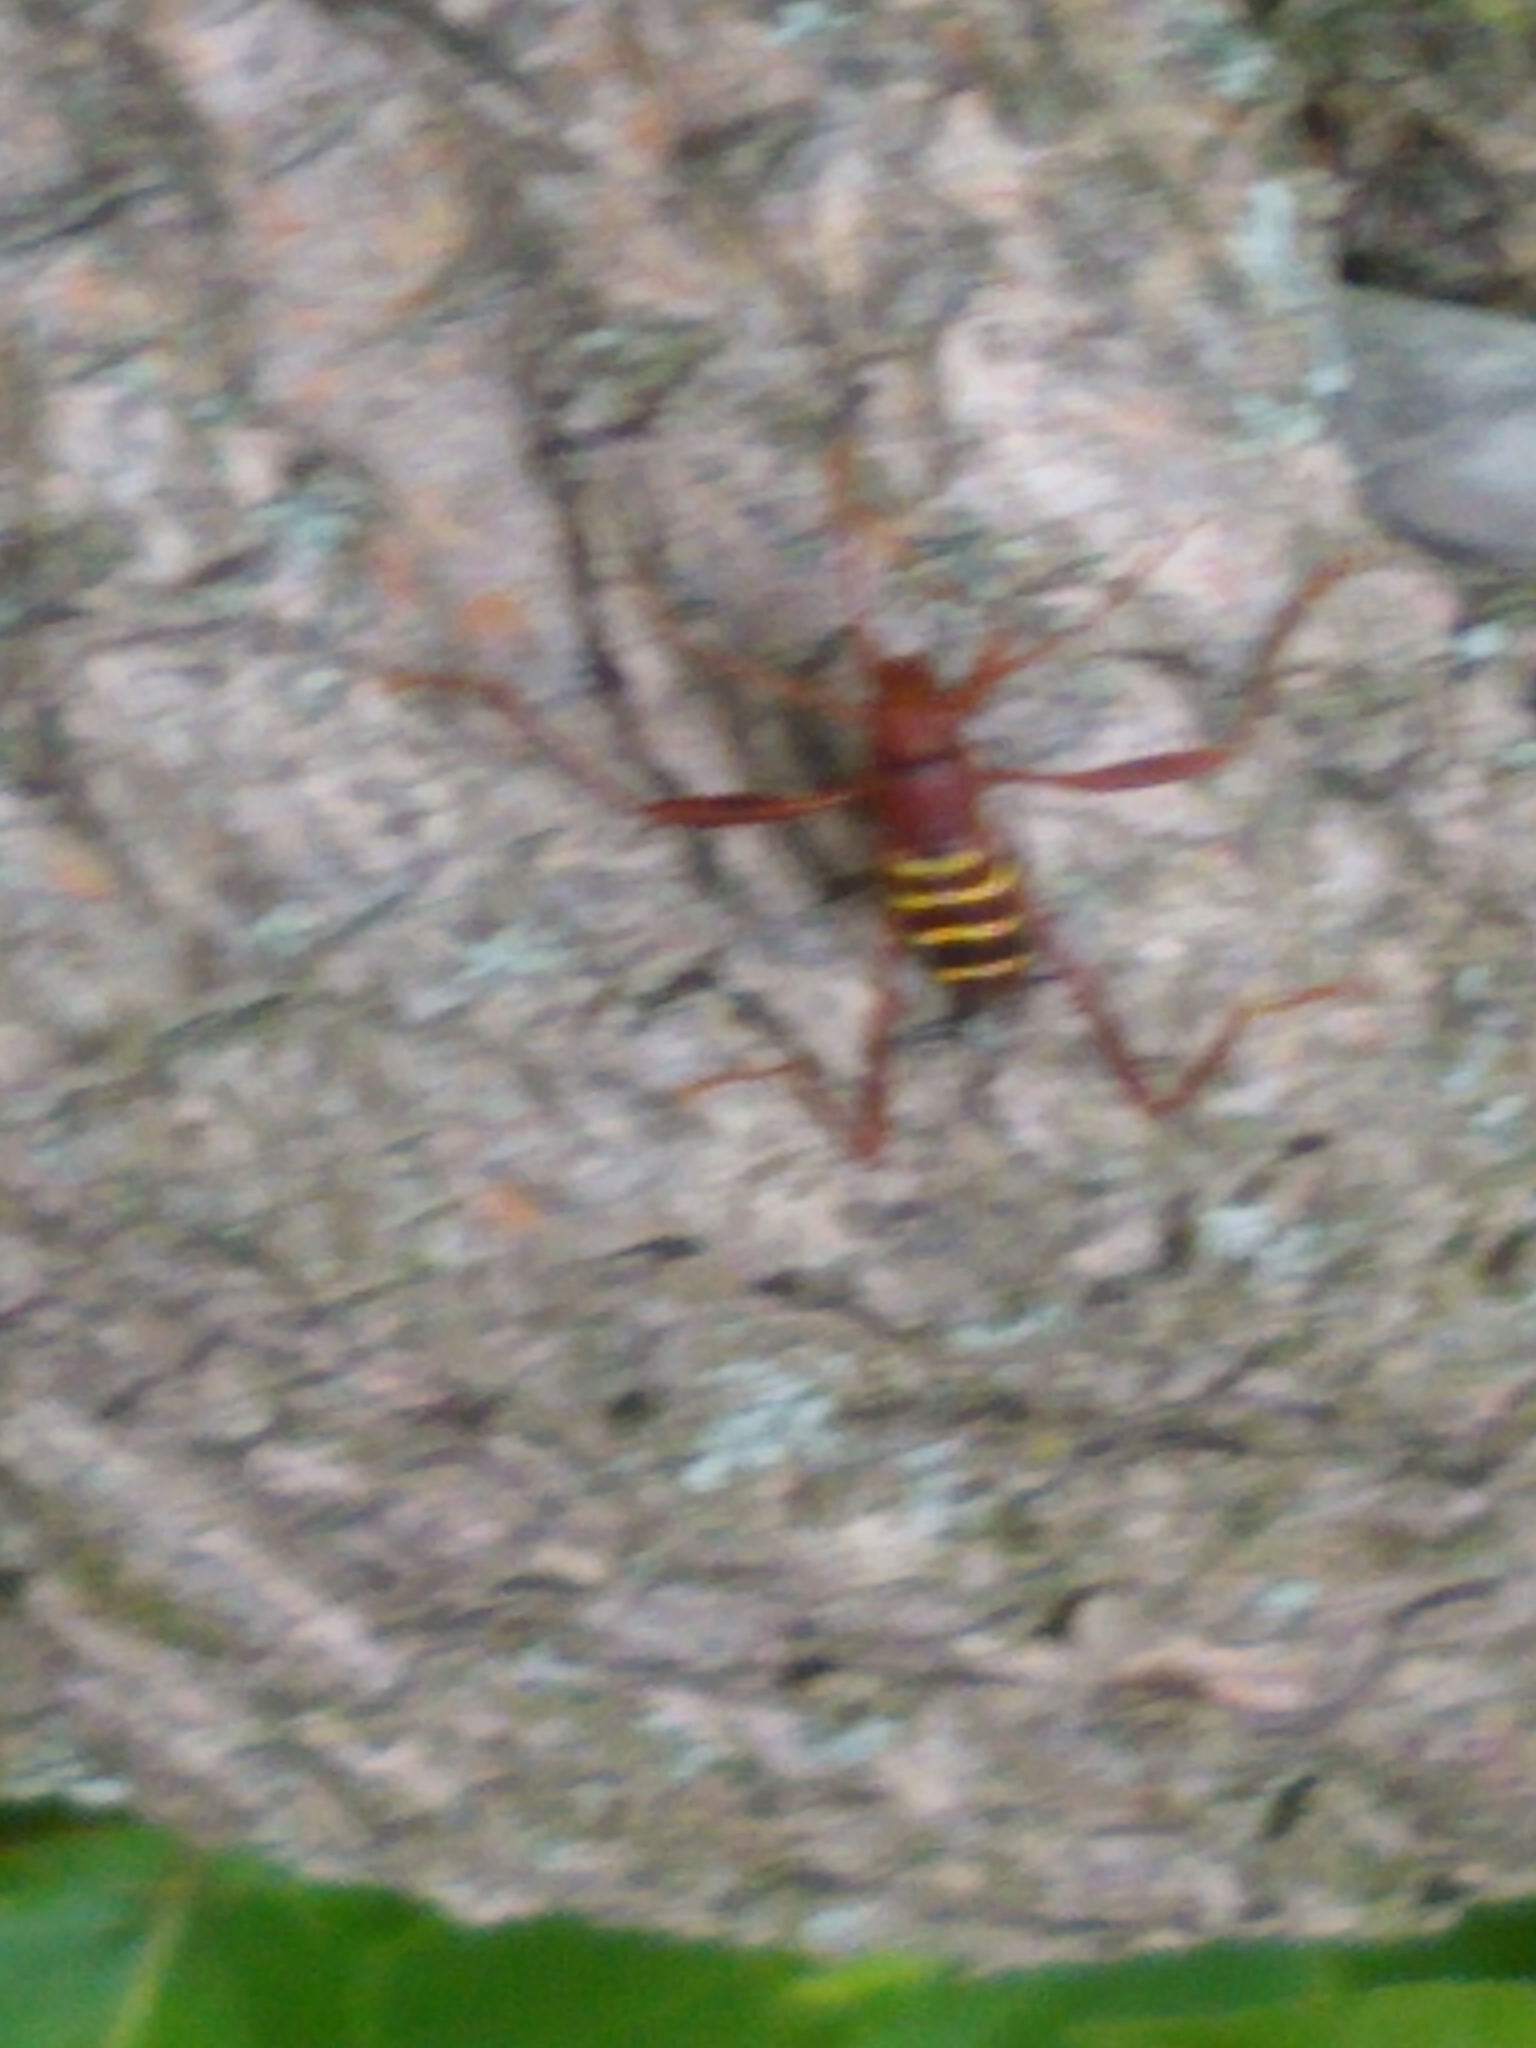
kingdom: Animalia
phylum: Arthropoda
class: Insecta
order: Coleoptera
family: Cerambycidae
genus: Neoclytus
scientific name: Neoclytus acuminatus
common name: Read-headed ash borer
